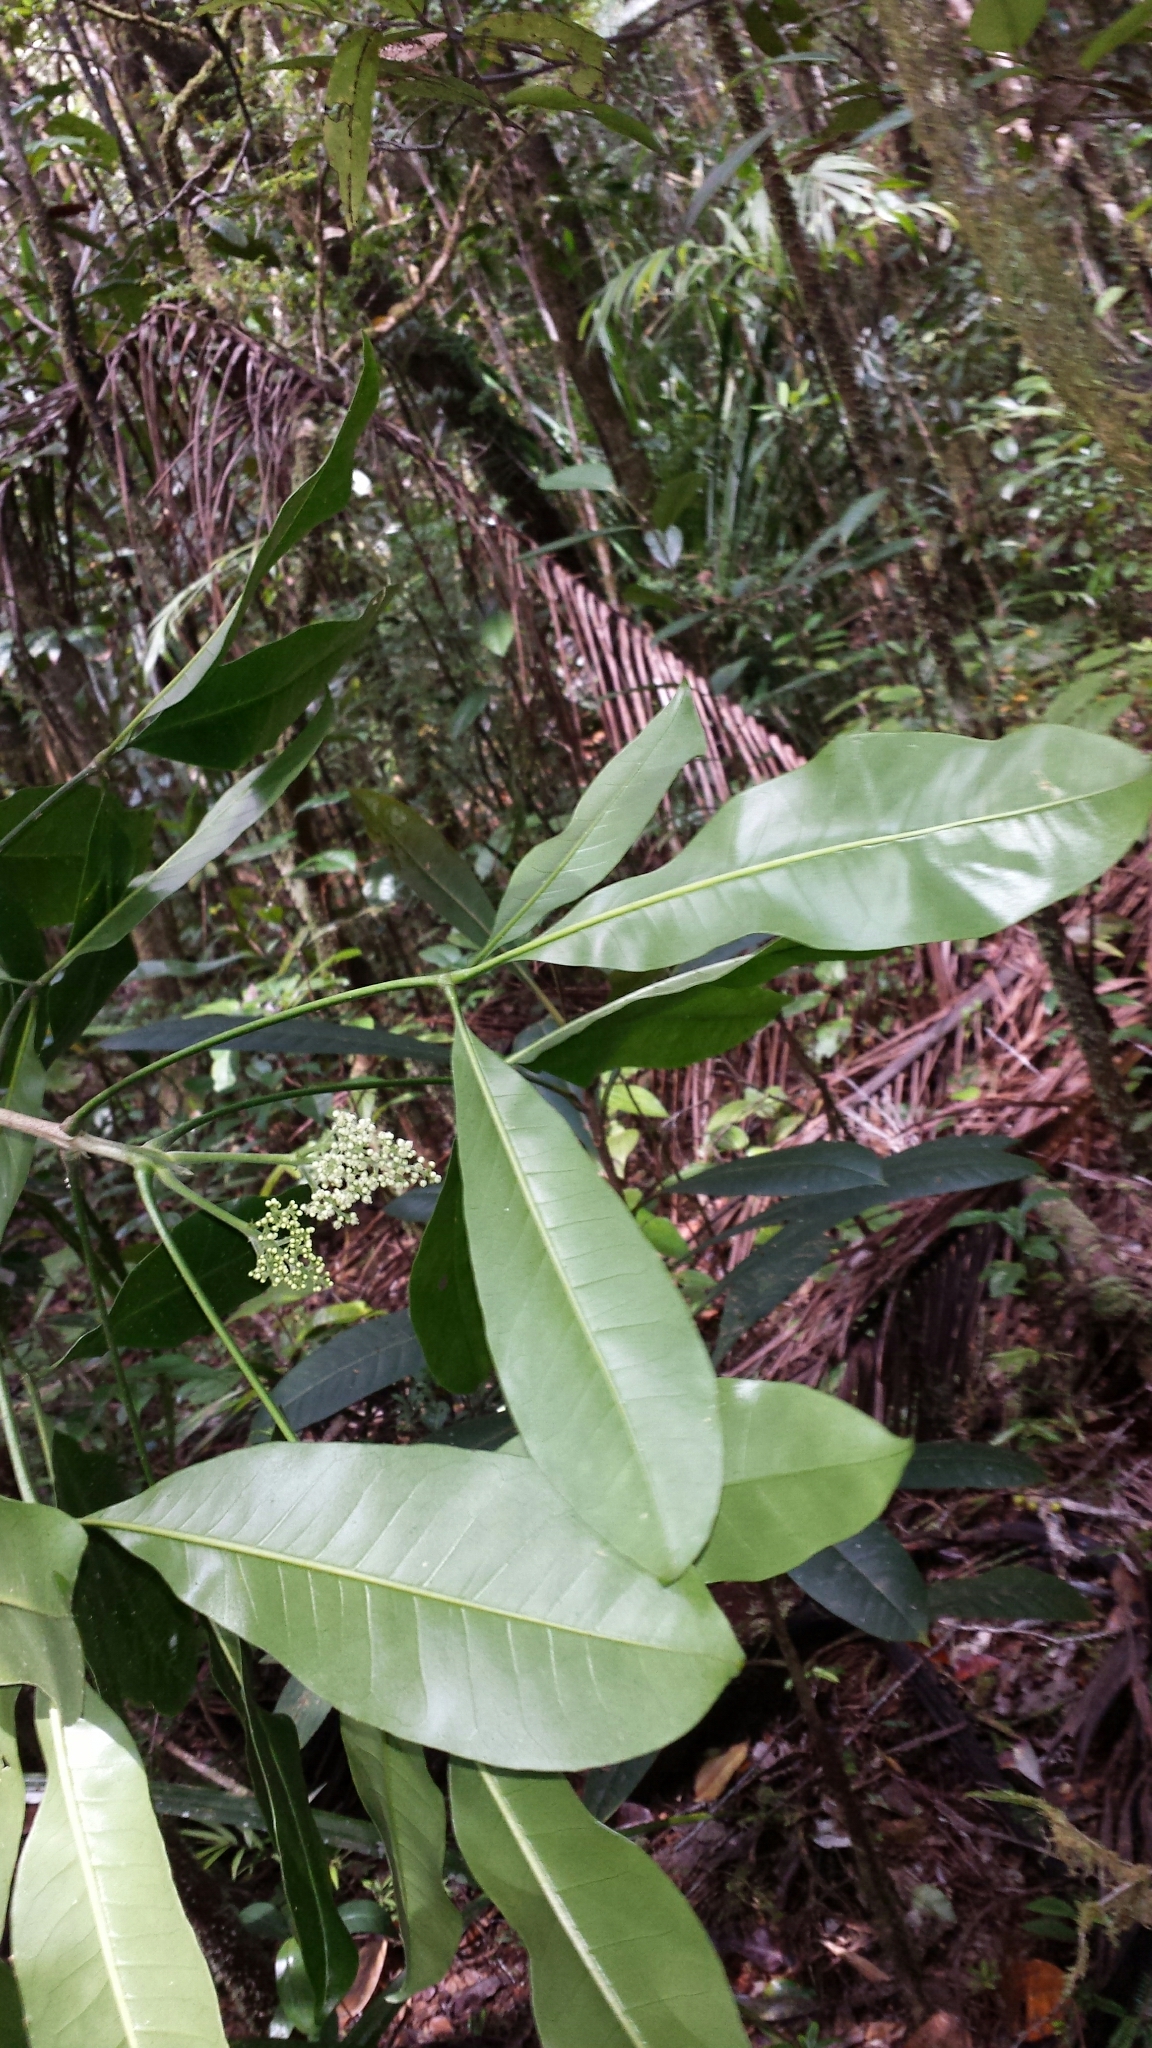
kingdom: Plantae
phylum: Tracheophyta
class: Magnoliopsida
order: Sapindales
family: Rutaceae
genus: Melicope
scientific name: Melicope magnifolia
